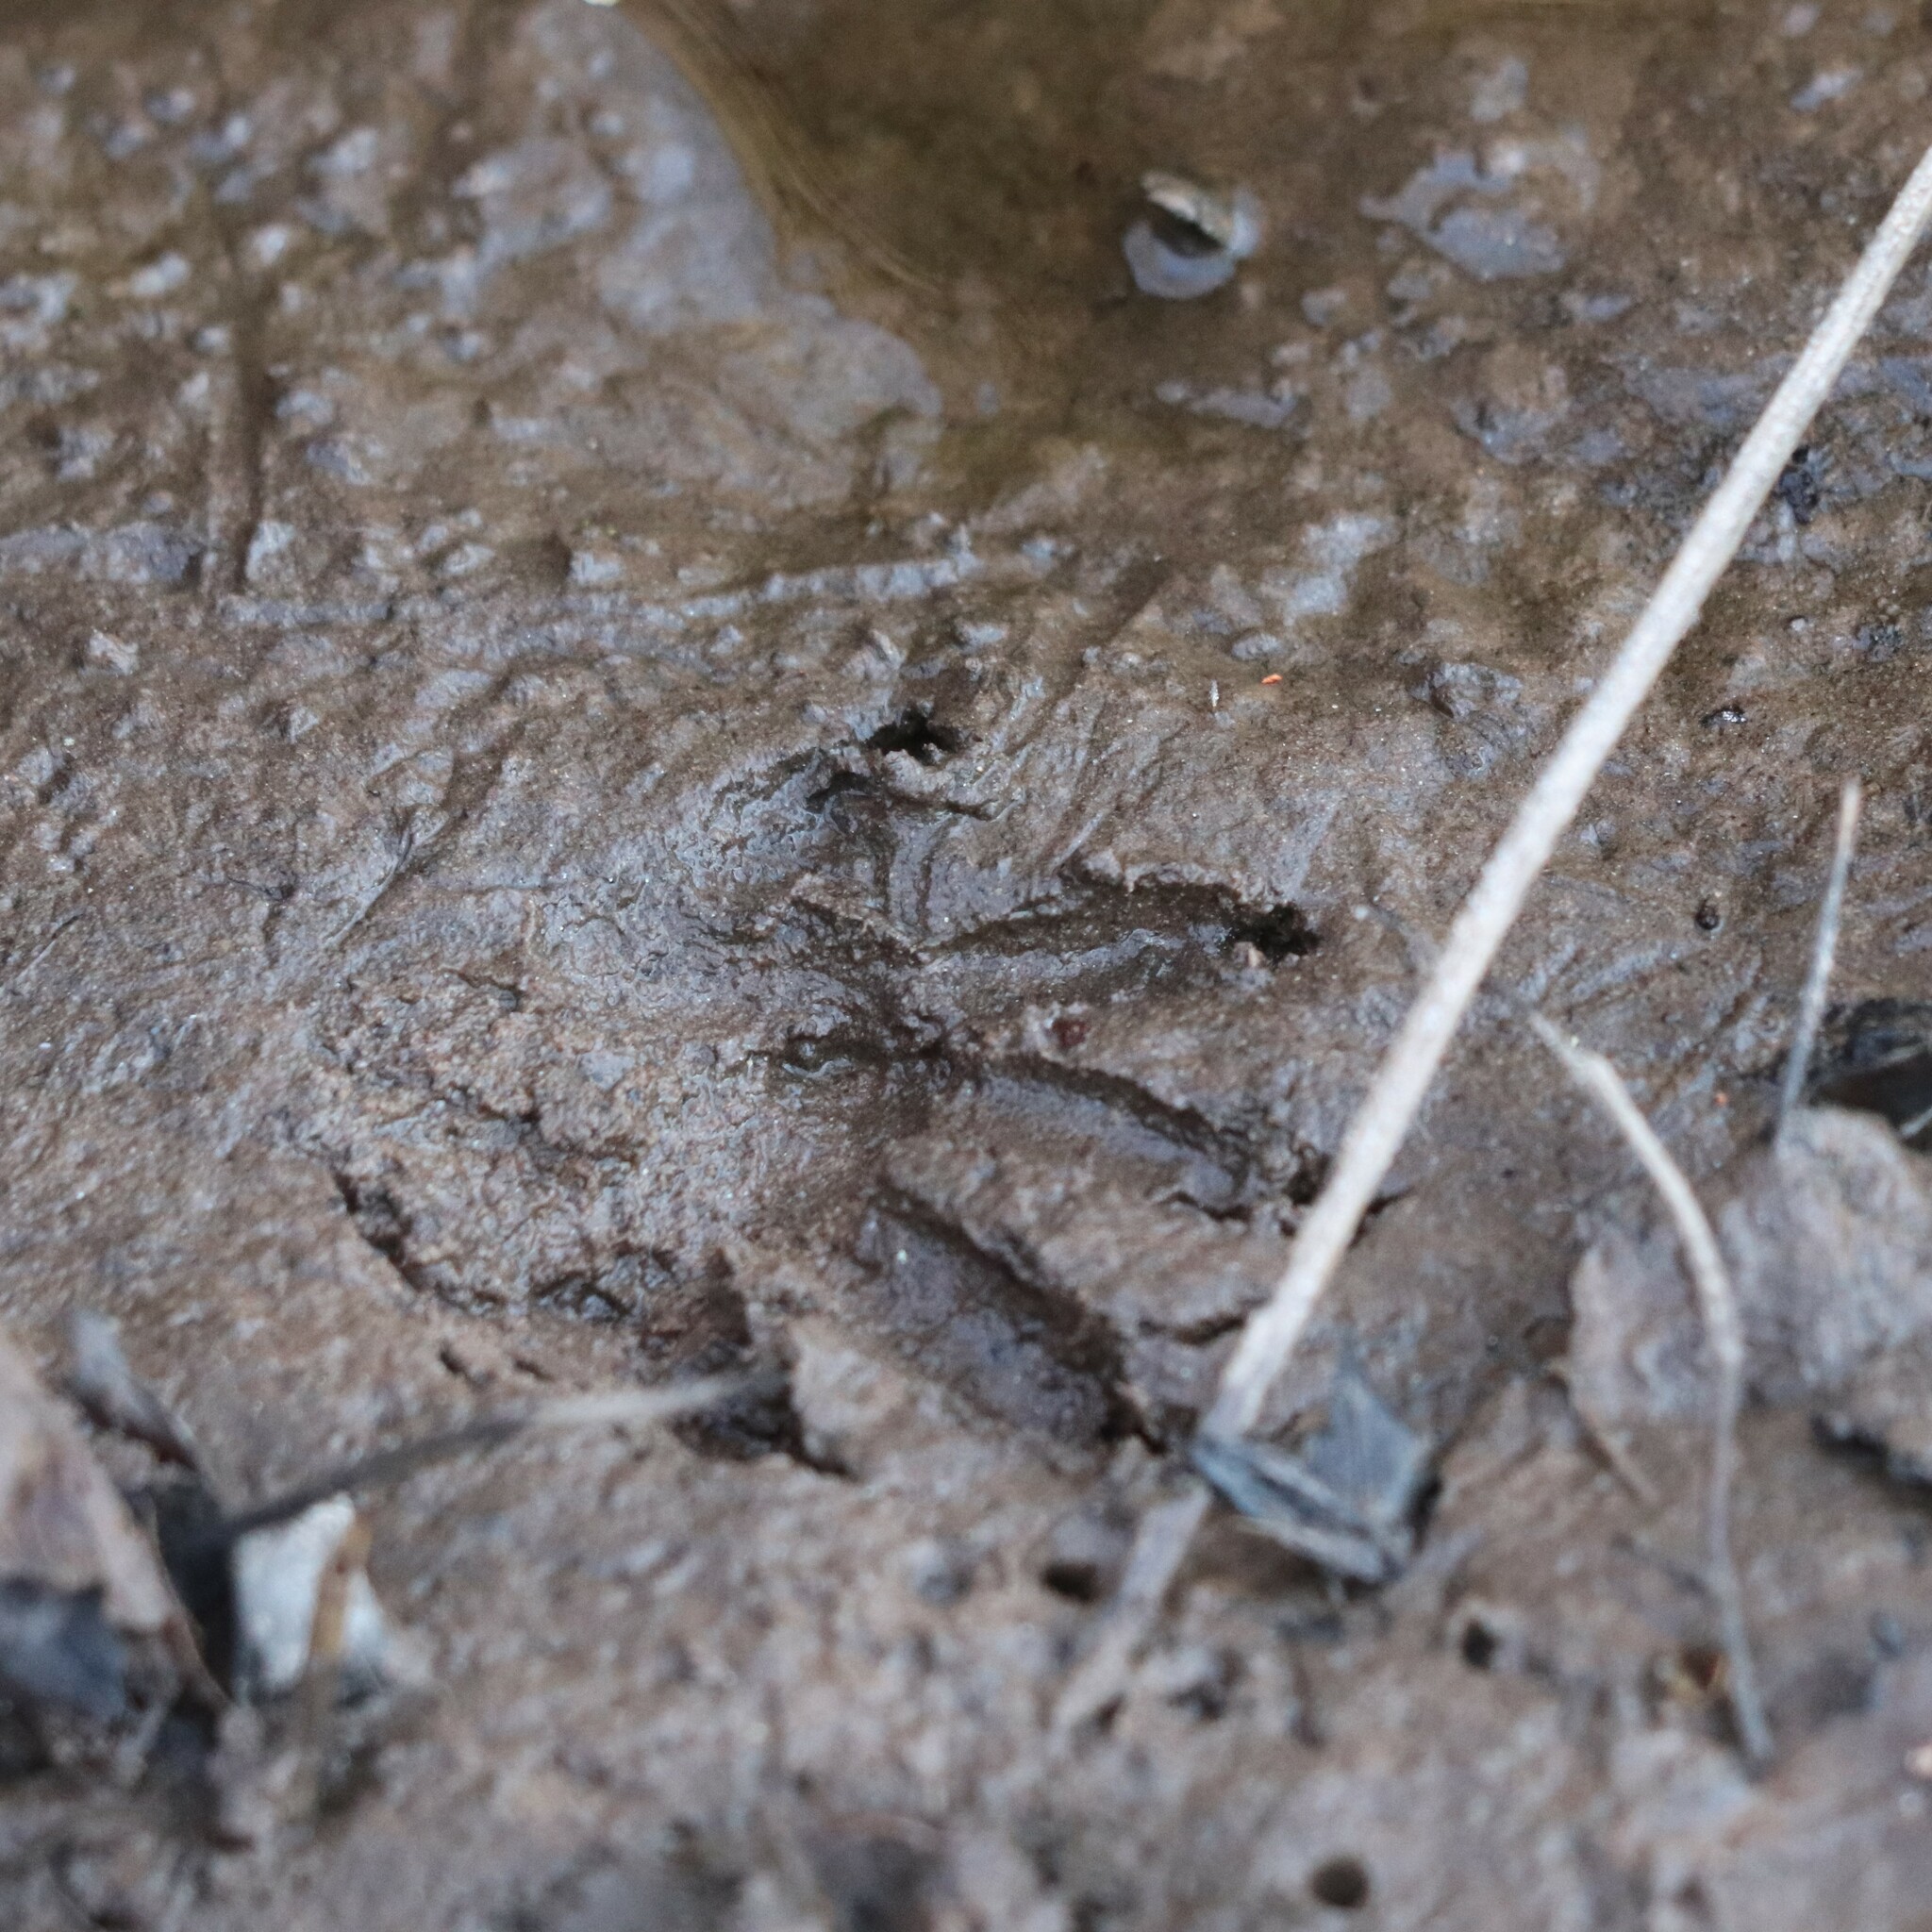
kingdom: Animalia
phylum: Chordata
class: Mammalia
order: Carnivora
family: Procyonidae
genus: Procyon
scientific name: Procyon lotor
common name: Raccoon
